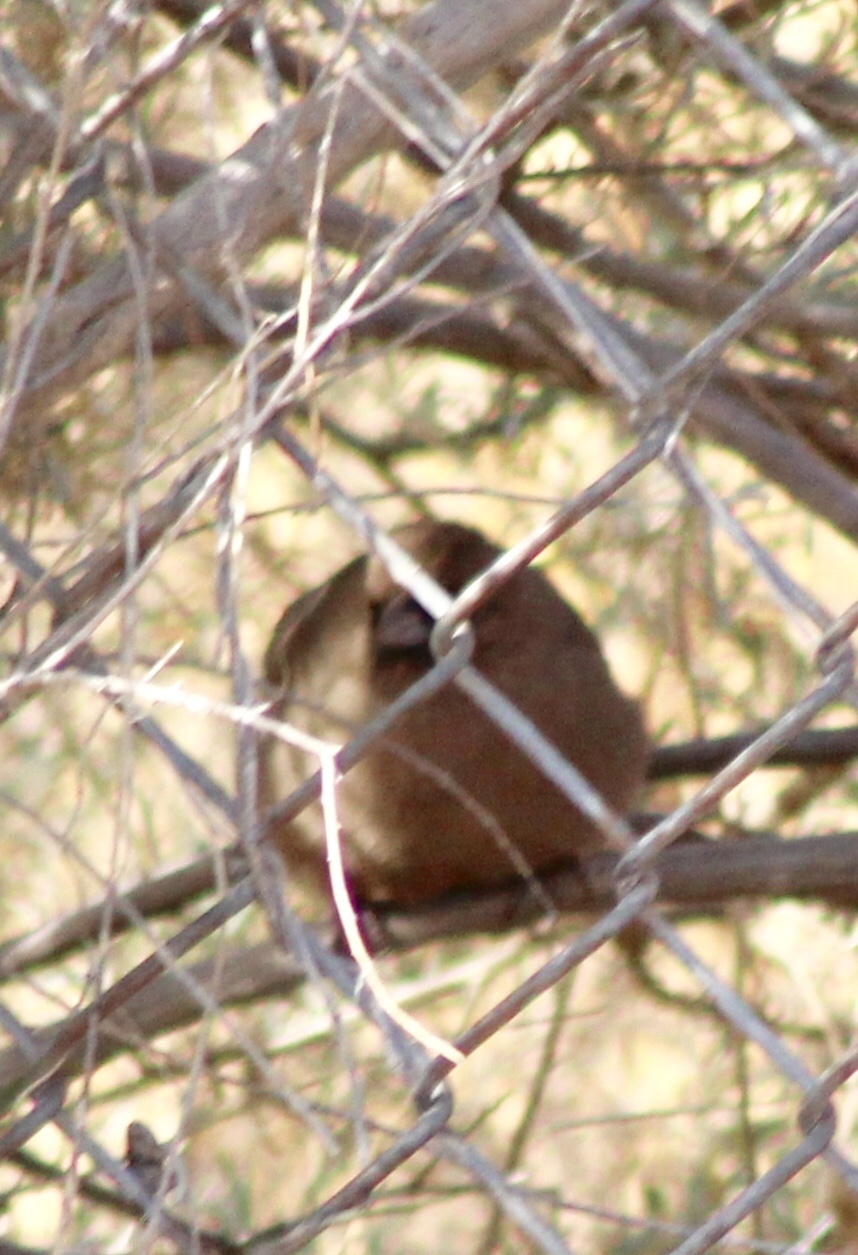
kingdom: Animalia
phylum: Chordata
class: Aves
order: Passeriformes
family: Passerellidae
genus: Melozone
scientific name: Melozone aberti
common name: Abert's towhee
